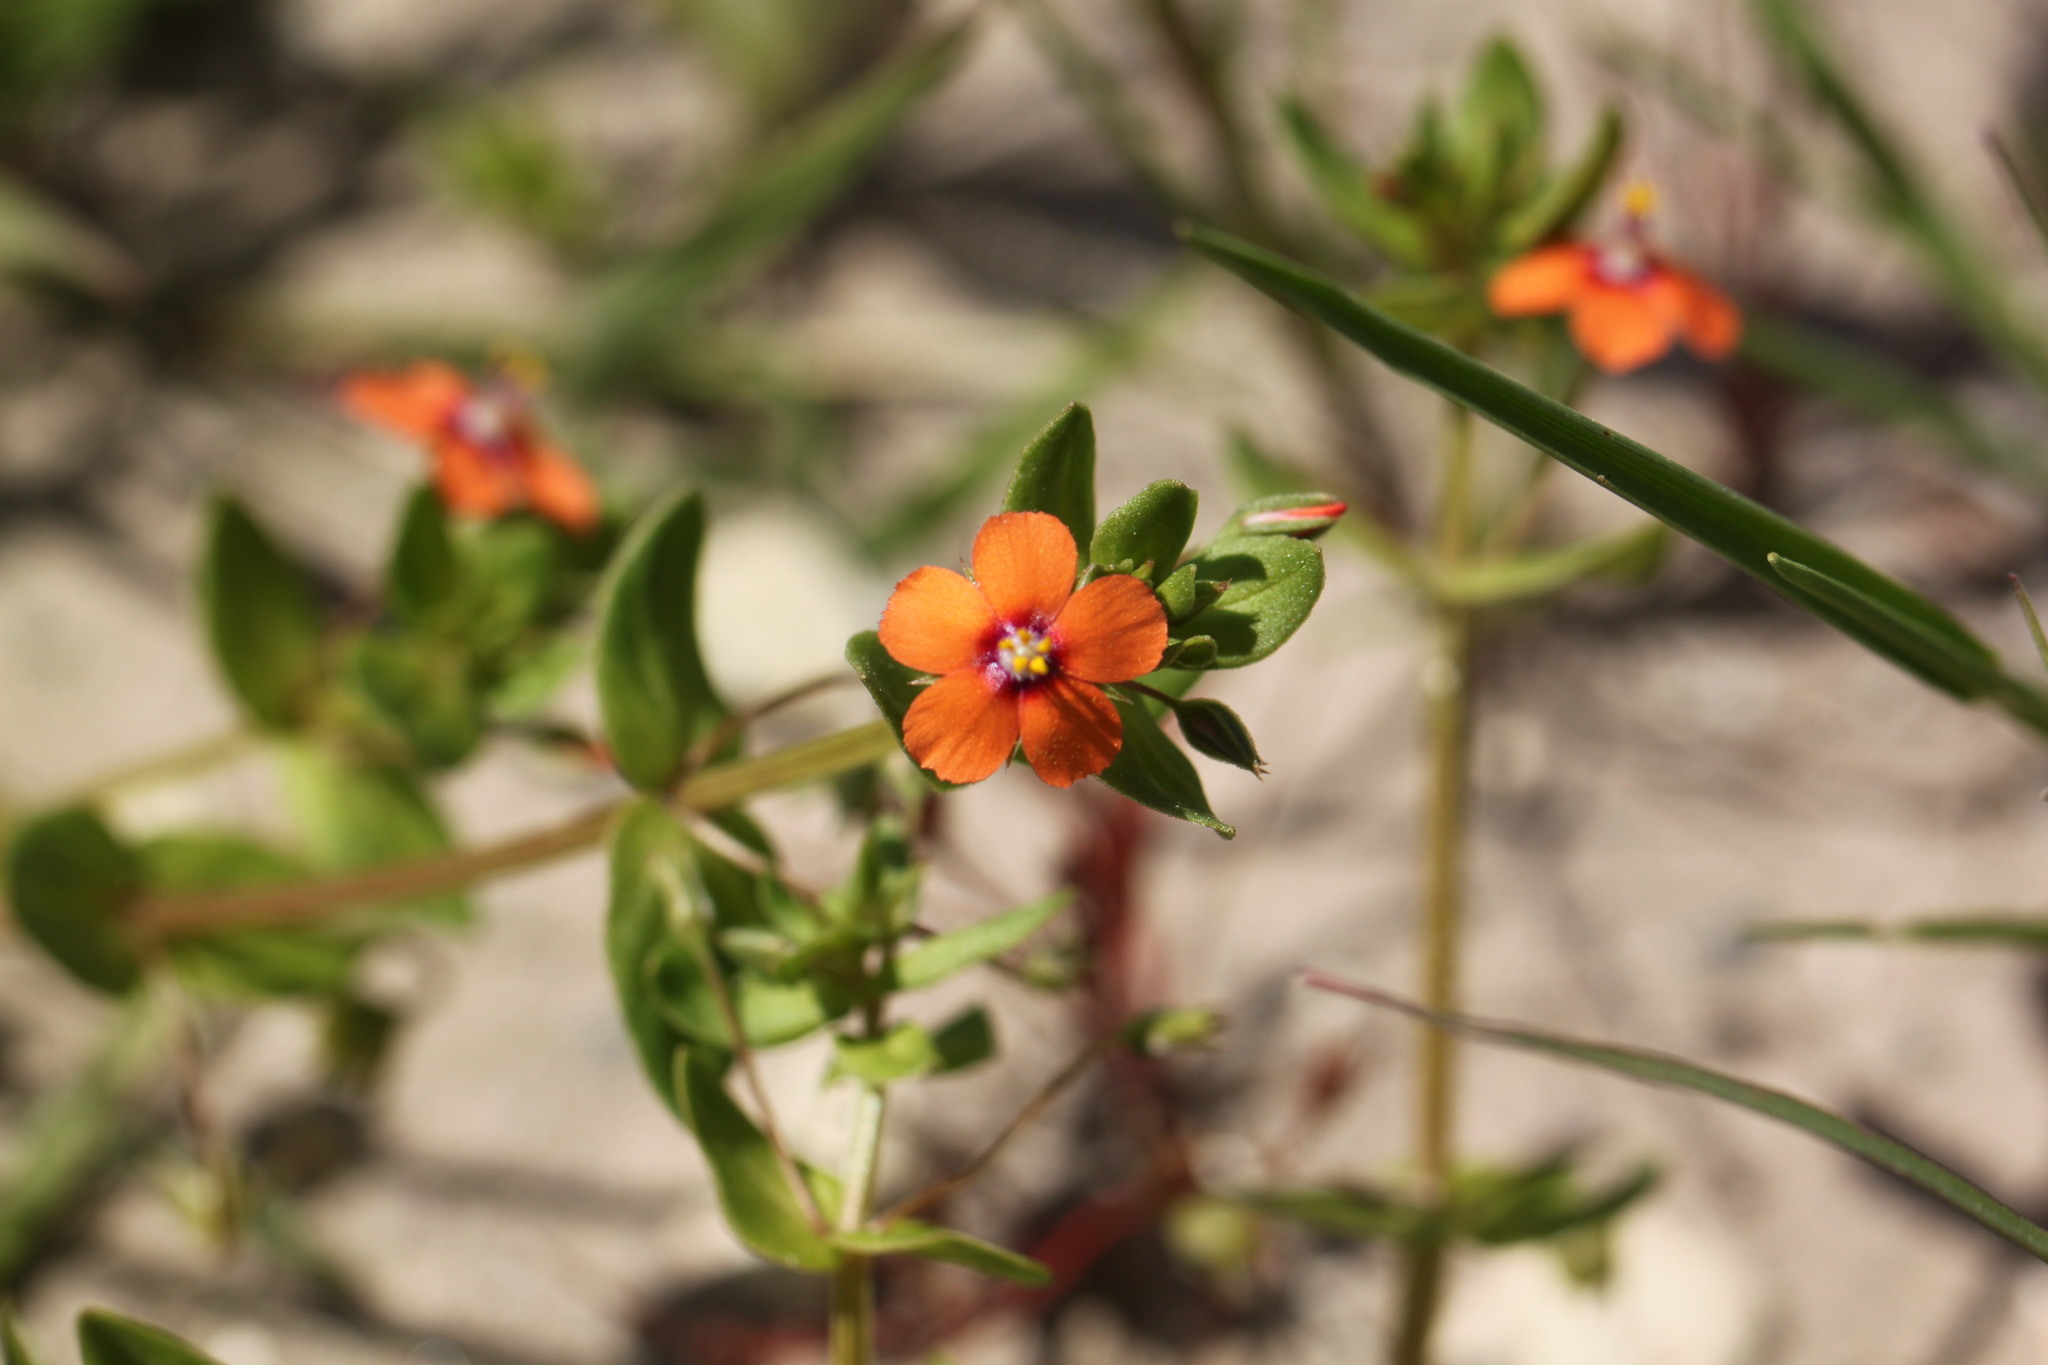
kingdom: Plantae
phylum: Tracheophyta
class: Magnoliopsida
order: Ericales
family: Primulaceae
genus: Lysimachia
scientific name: Lysimachia arvensis
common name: Scarlet pimpernel
